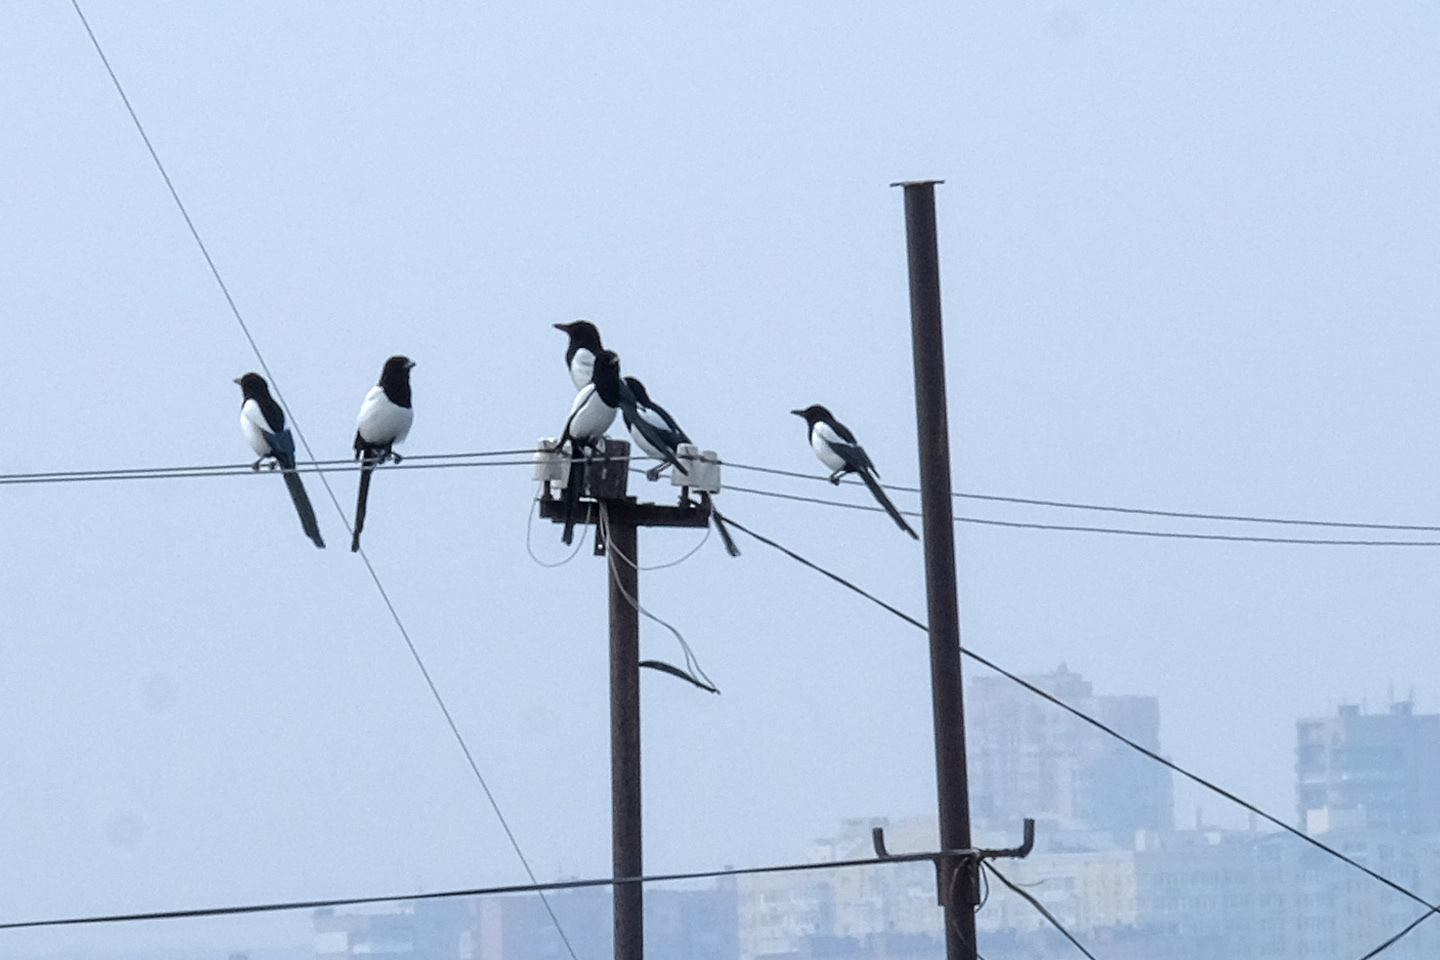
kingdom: Animalia
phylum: Chordata
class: Aves
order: Passeriformes
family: Corvidae
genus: Pica
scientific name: Pica pica
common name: Eurasian magpie
